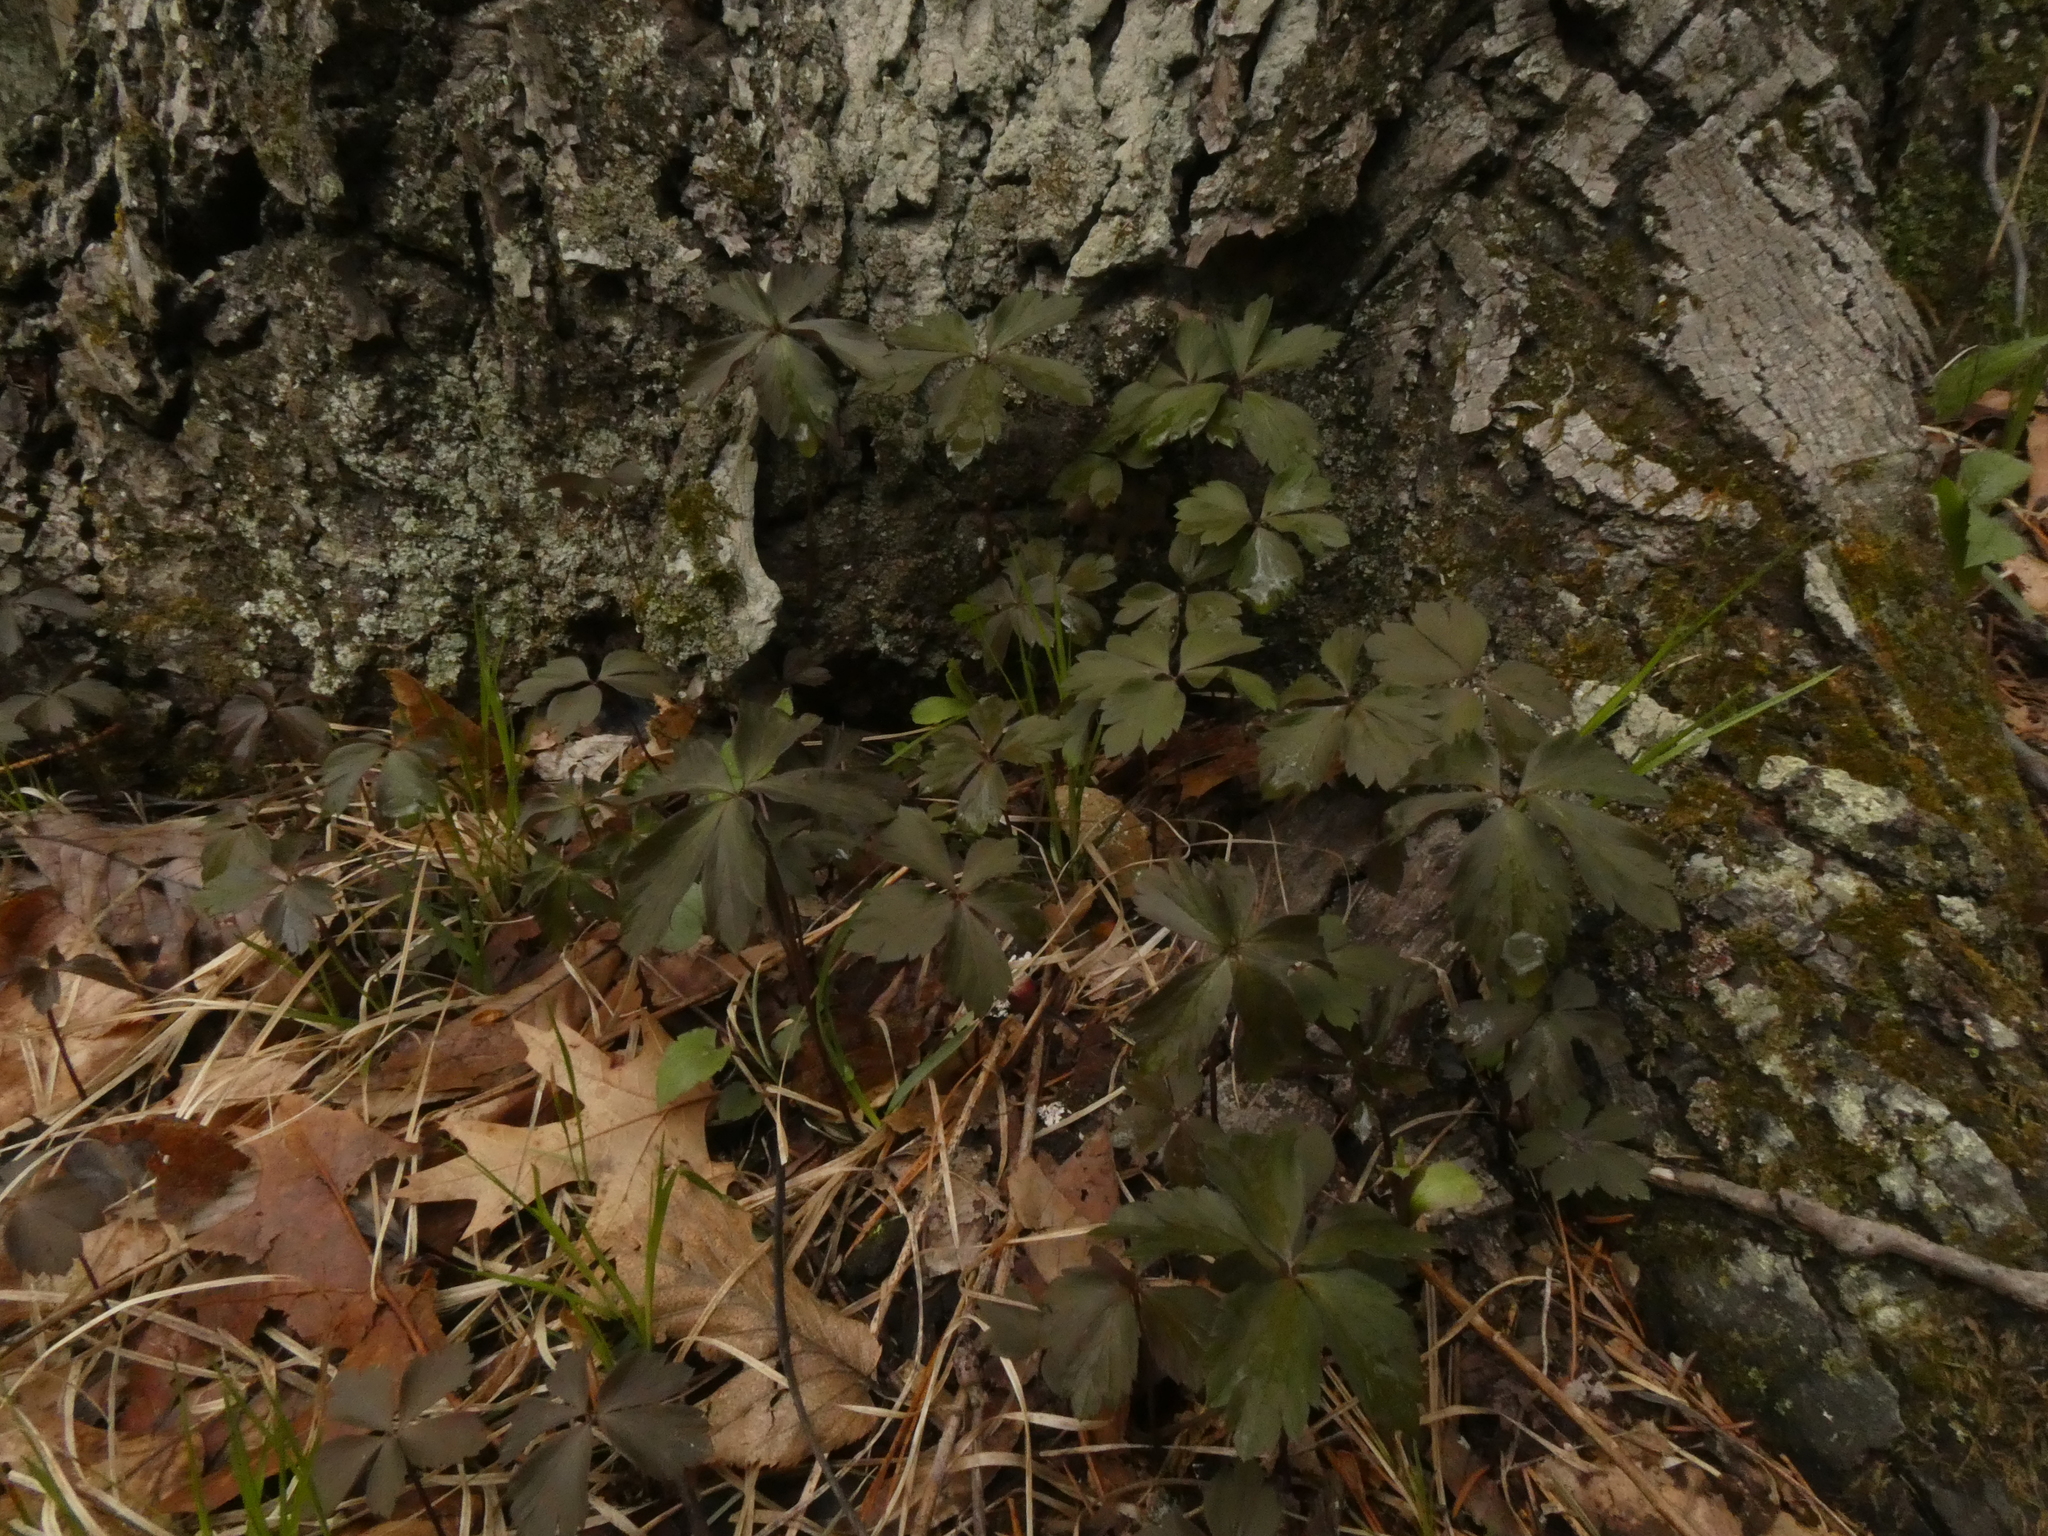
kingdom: Plantae
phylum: Tracheophyta
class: Magnoliopsida
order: Ranunculales
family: Ranunculaceae
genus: Anemone
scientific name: Anemone quinquefolia
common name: Wood anemone
